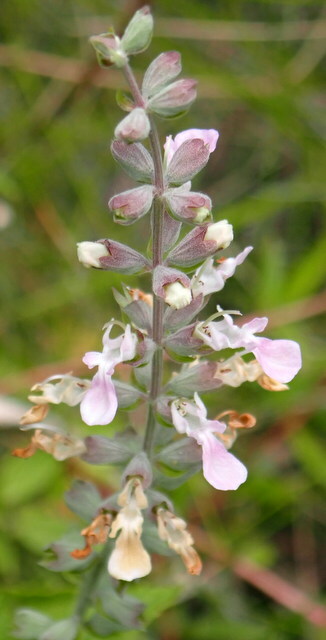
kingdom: Plantae
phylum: Tracheophyta
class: Magnoliopsida
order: Lamiales
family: Lamiaceae
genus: Teucrium
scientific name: Teucrium canadense
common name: American germander
